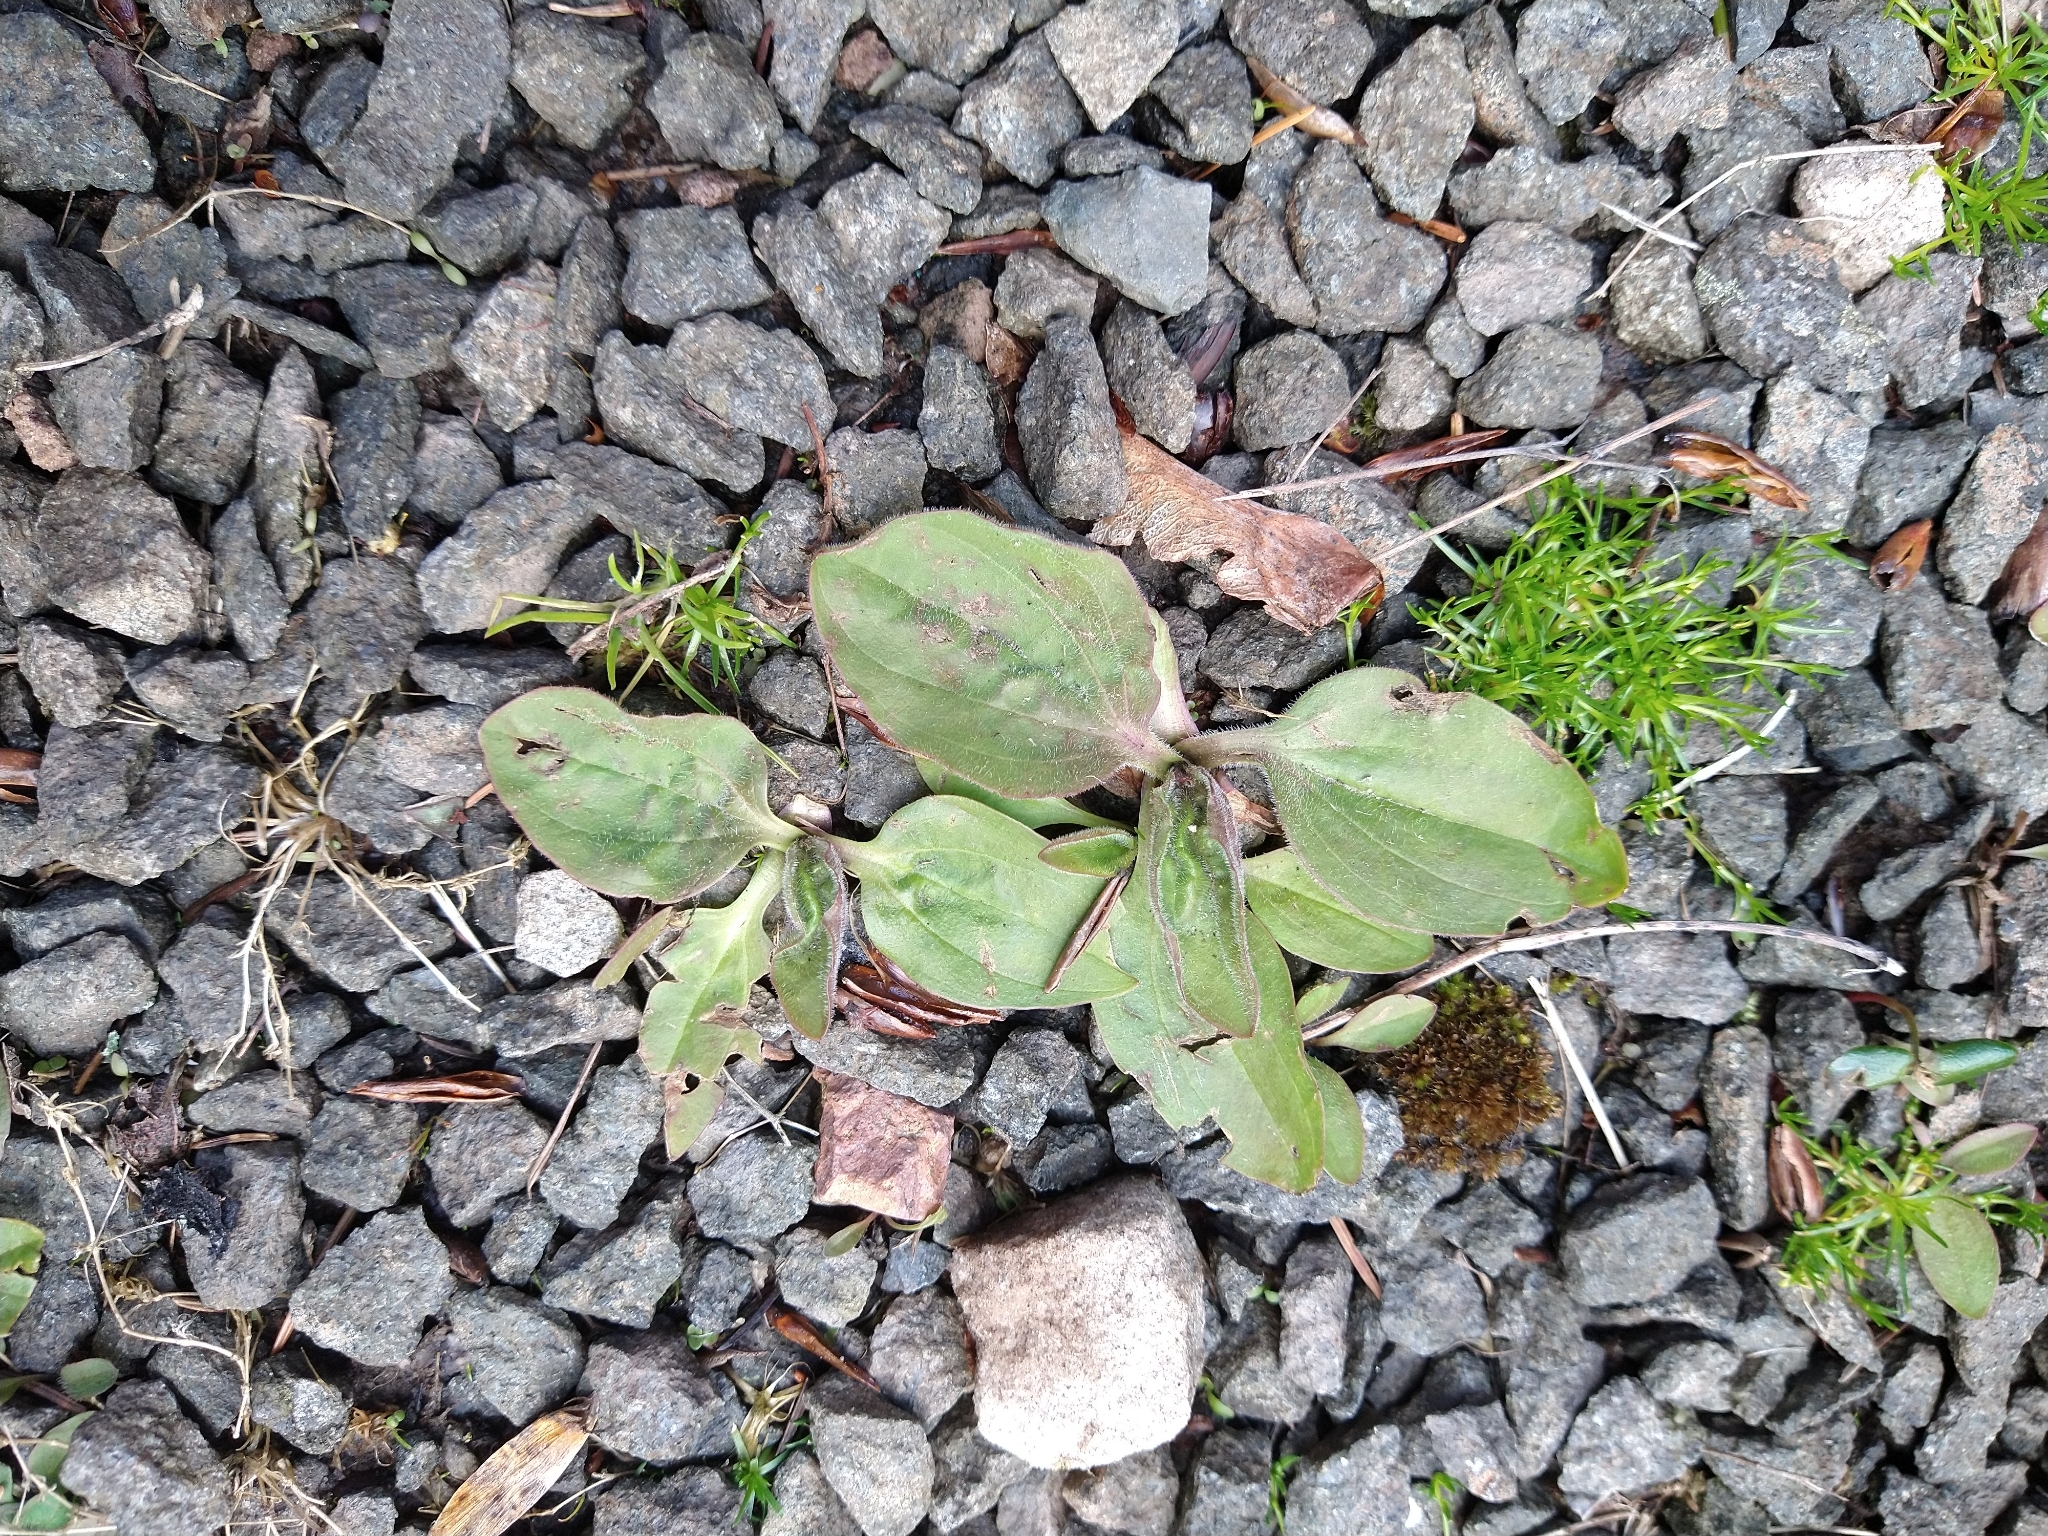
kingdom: Plantae
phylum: Tracheophyta
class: Magnoliopsida
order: Lamiales
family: Plantaginaceae
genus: Plantago
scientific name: Plantago major
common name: Common plantain
